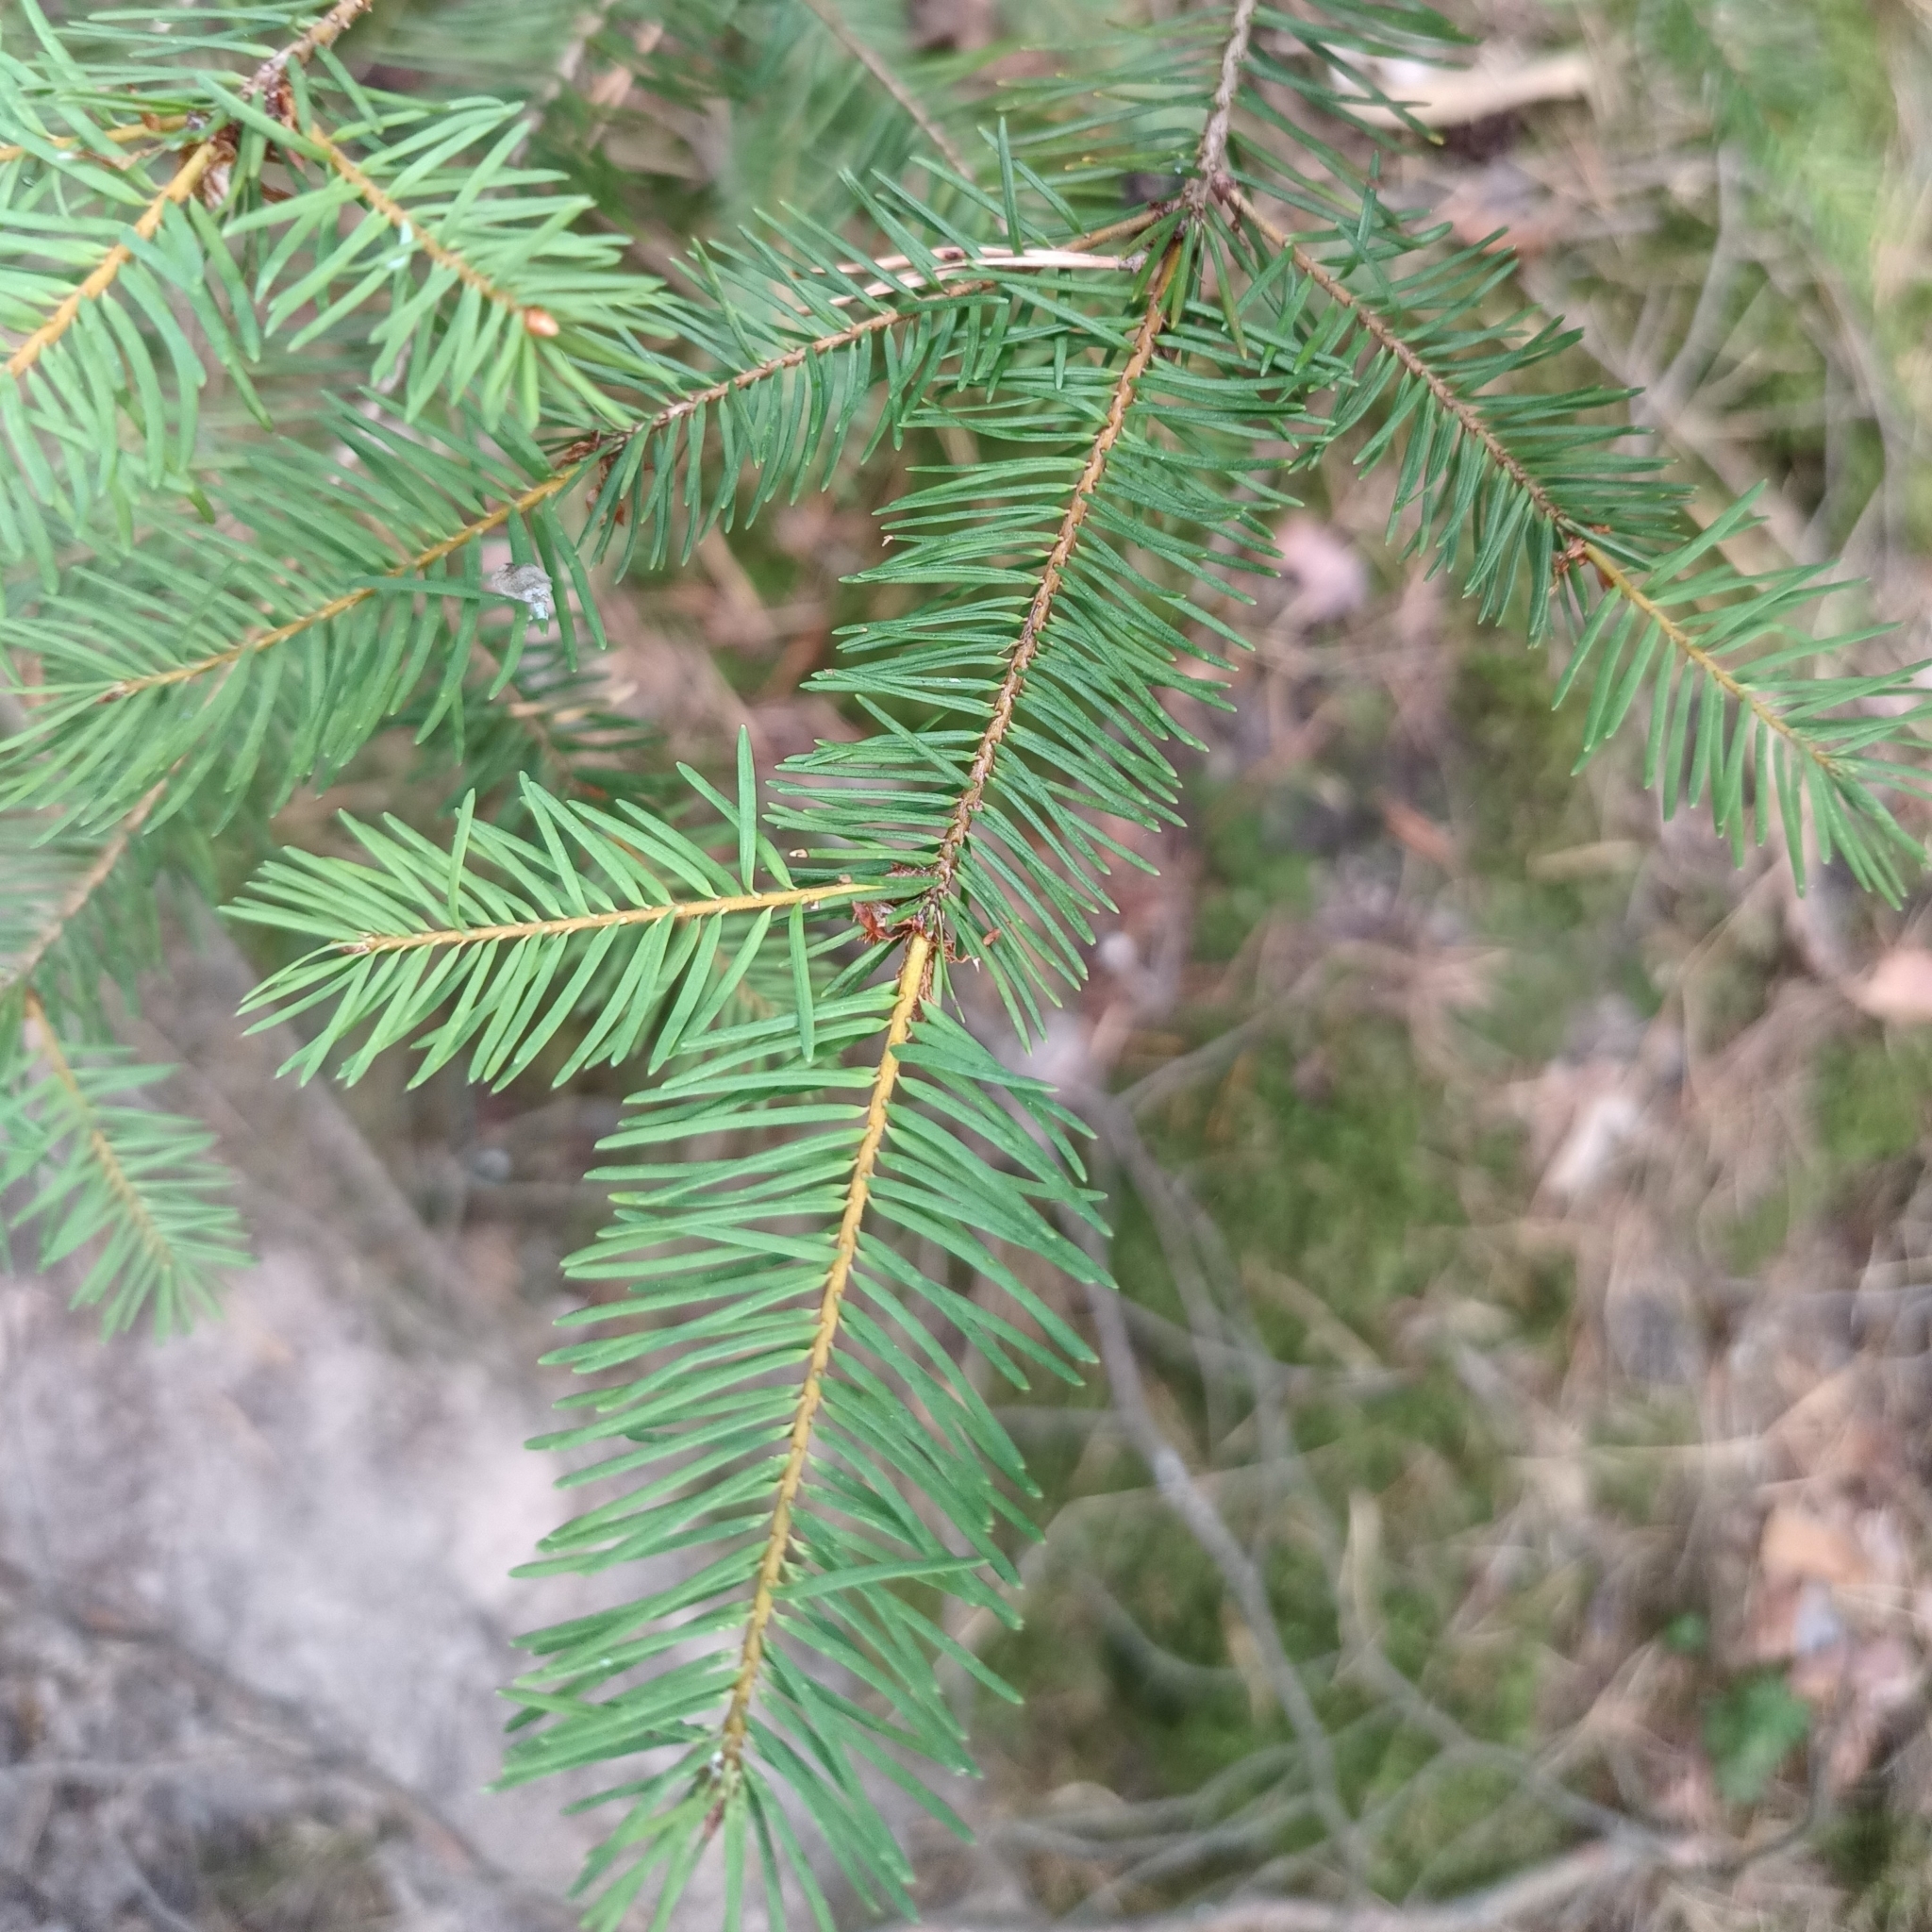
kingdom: Plantae
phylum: Tracheophyta
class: Pinopsida
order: Pinales
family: Pinaceae
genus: Pseudotsuga
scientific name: Pseudotsuga menziesii
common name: Douglas fir
